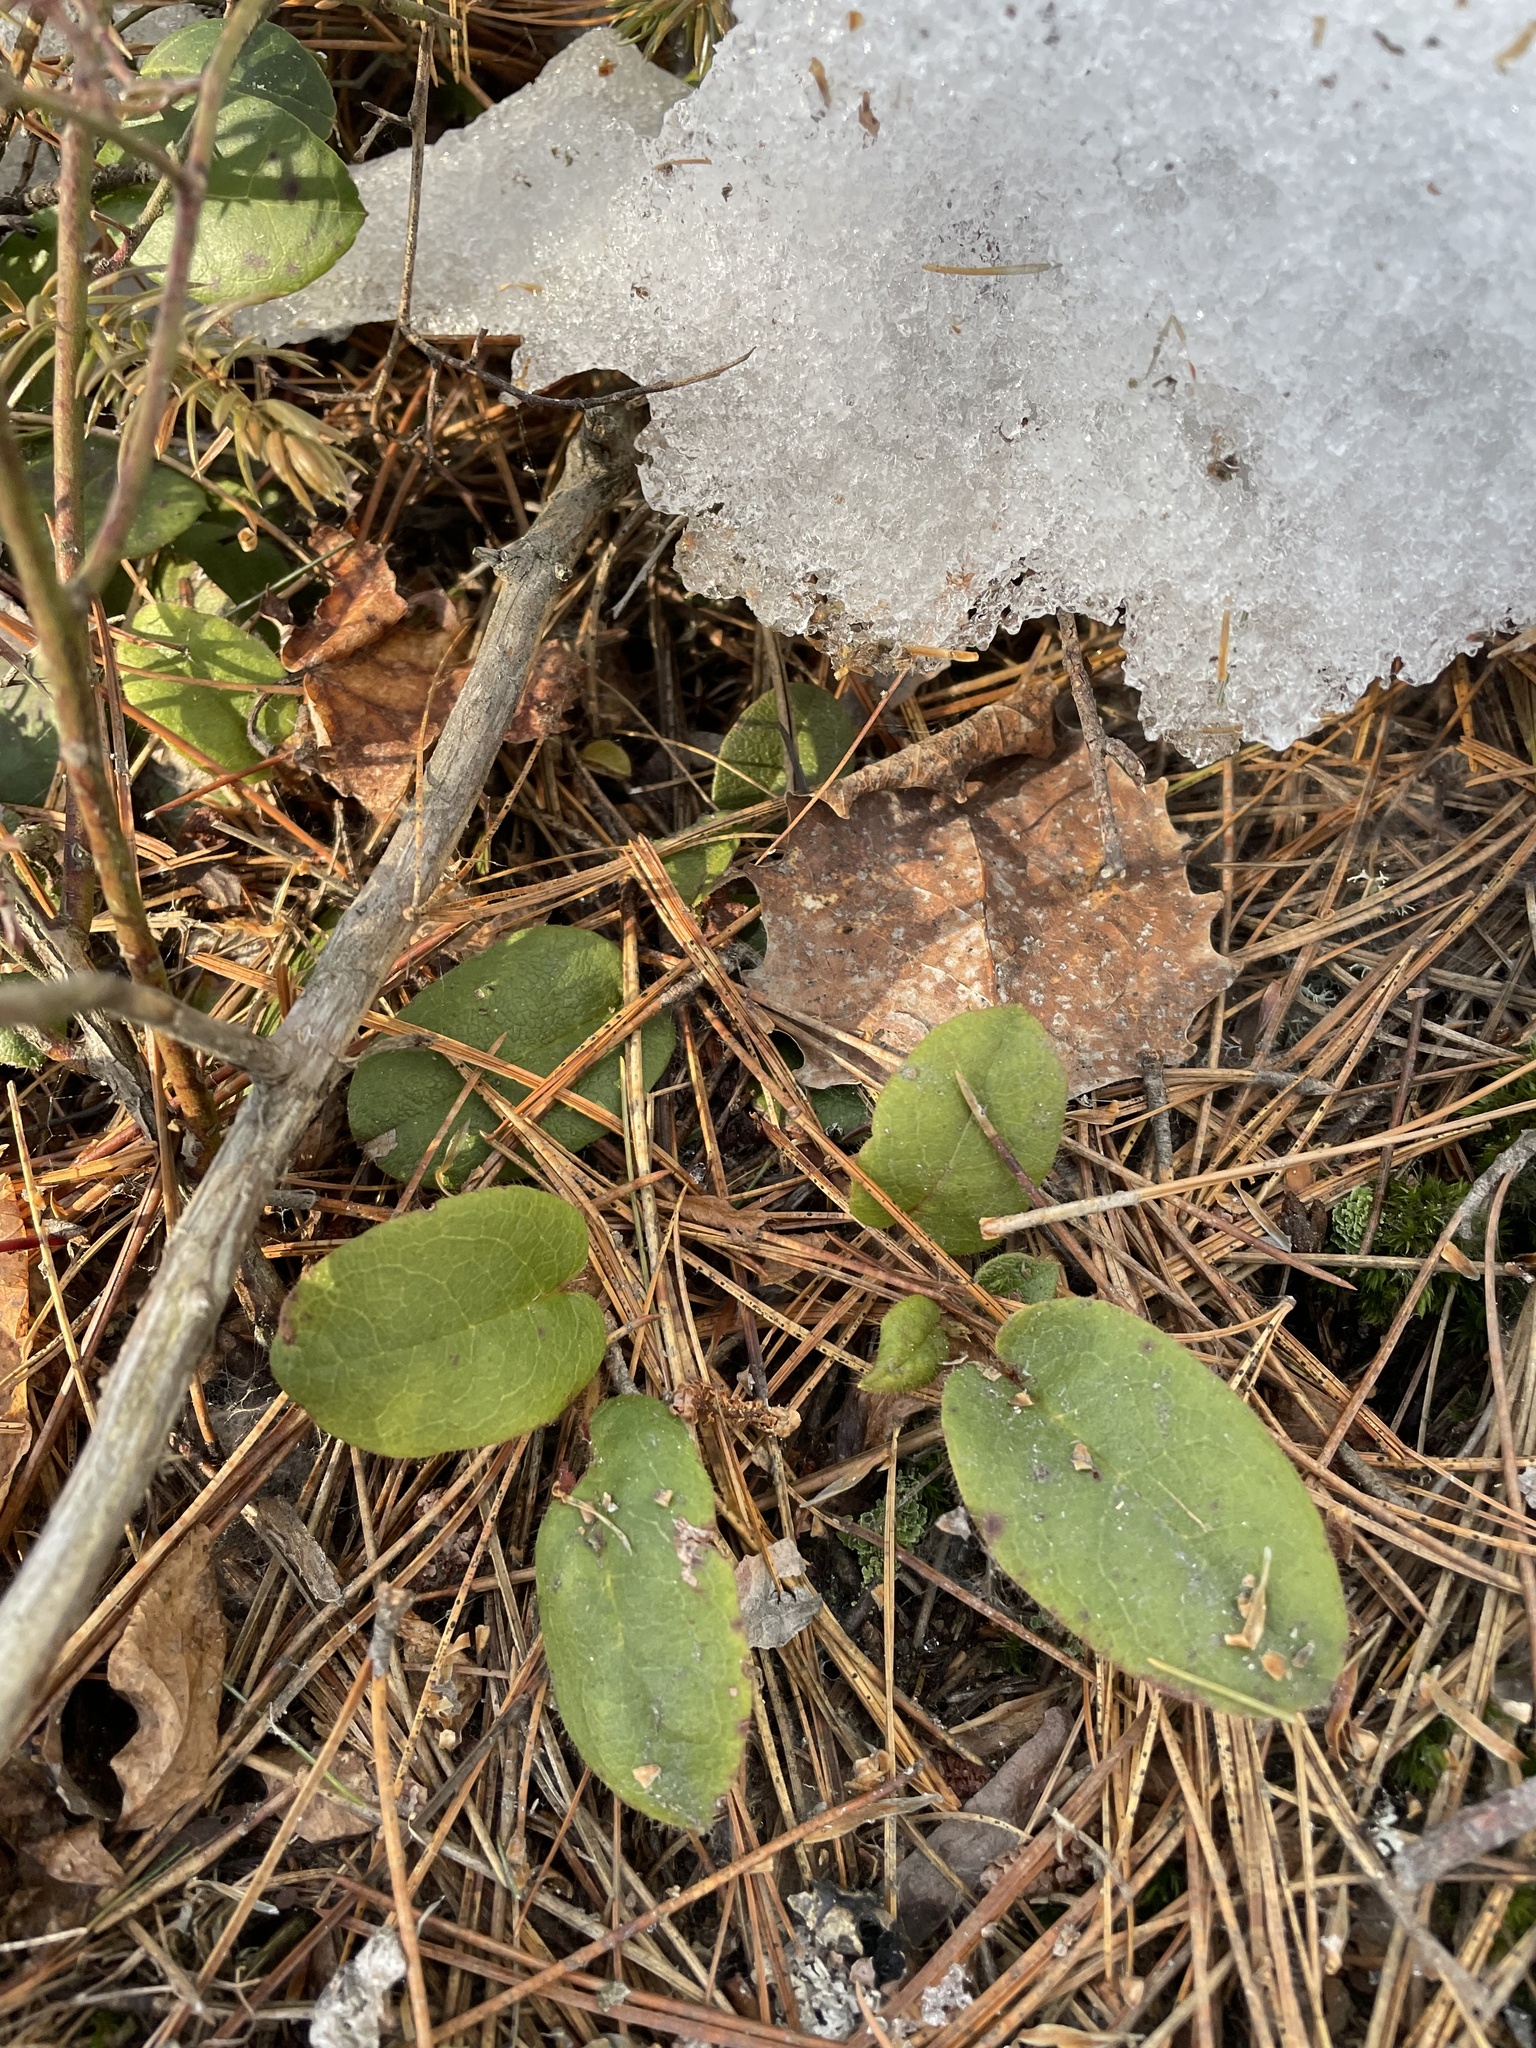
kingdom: Plantae
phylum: Tracheophyta
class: Magnoliopsida
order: Ericales
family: Ericaceae
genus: Epigaea
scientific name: Epigaea repens
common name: Gravelroot
